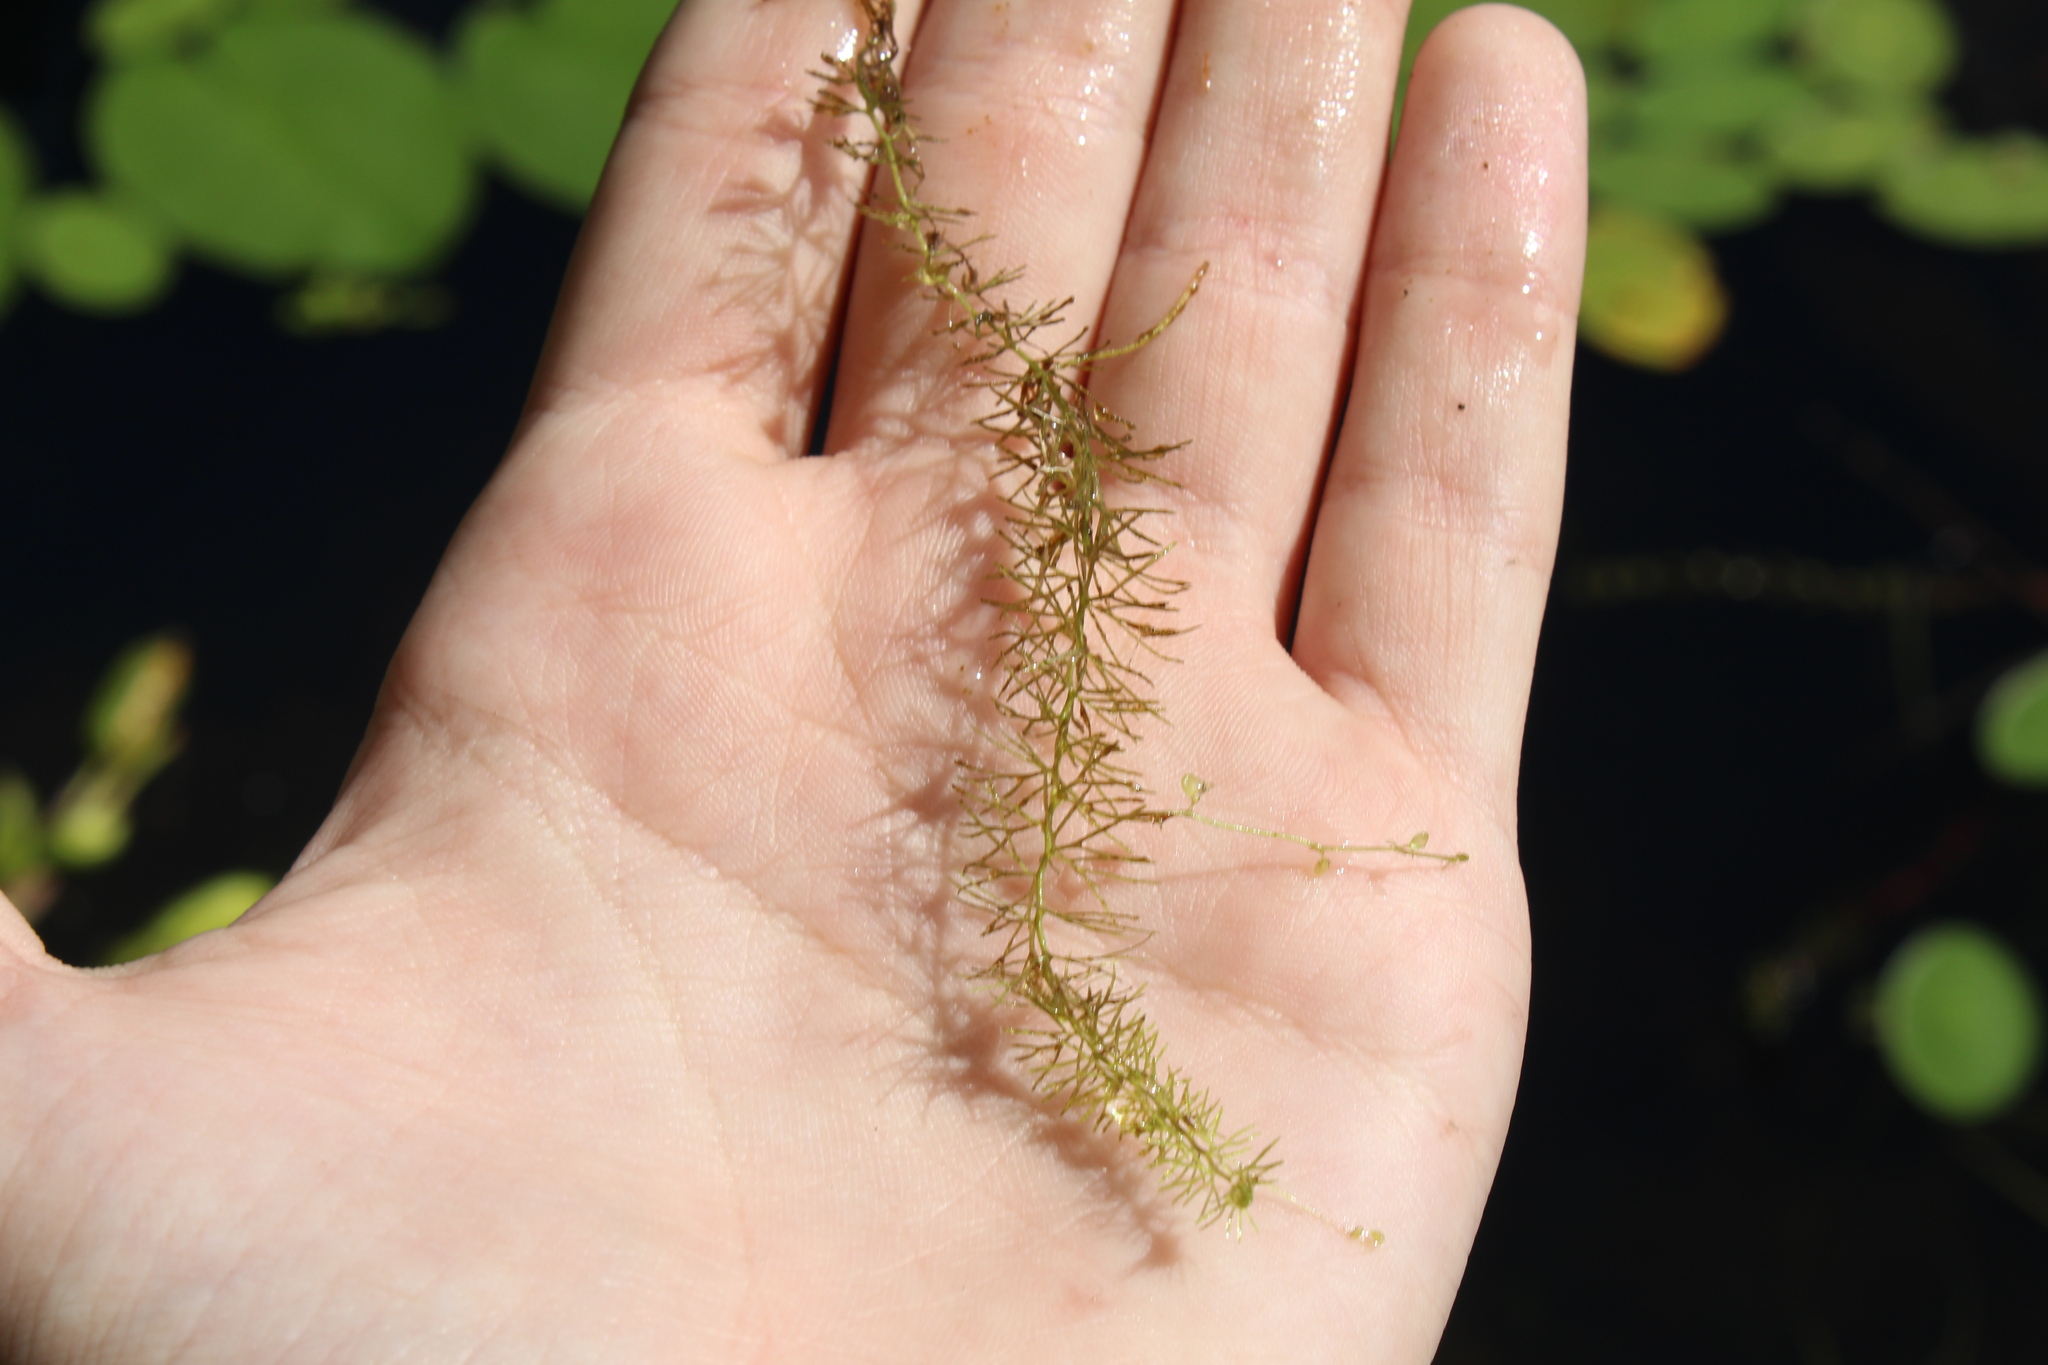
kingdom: Plantae
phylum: Tracheophyta
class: Magnoliopsida
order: Lamiales
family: Lentibulariaceae
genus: Utricularia
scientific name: Utricularia intermedia
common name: Intermediate bladderwort
